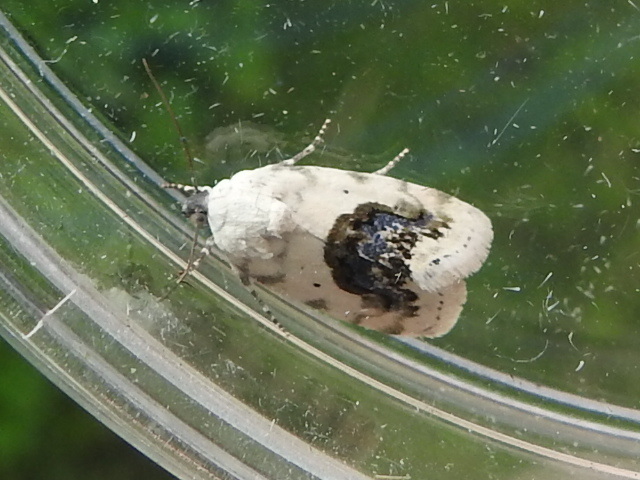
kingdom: Animalia
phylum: Arthropoda
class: Insecta
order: Lepidoptera
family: Noctuidae
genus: Acontia
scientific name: Acontia erastrioides
